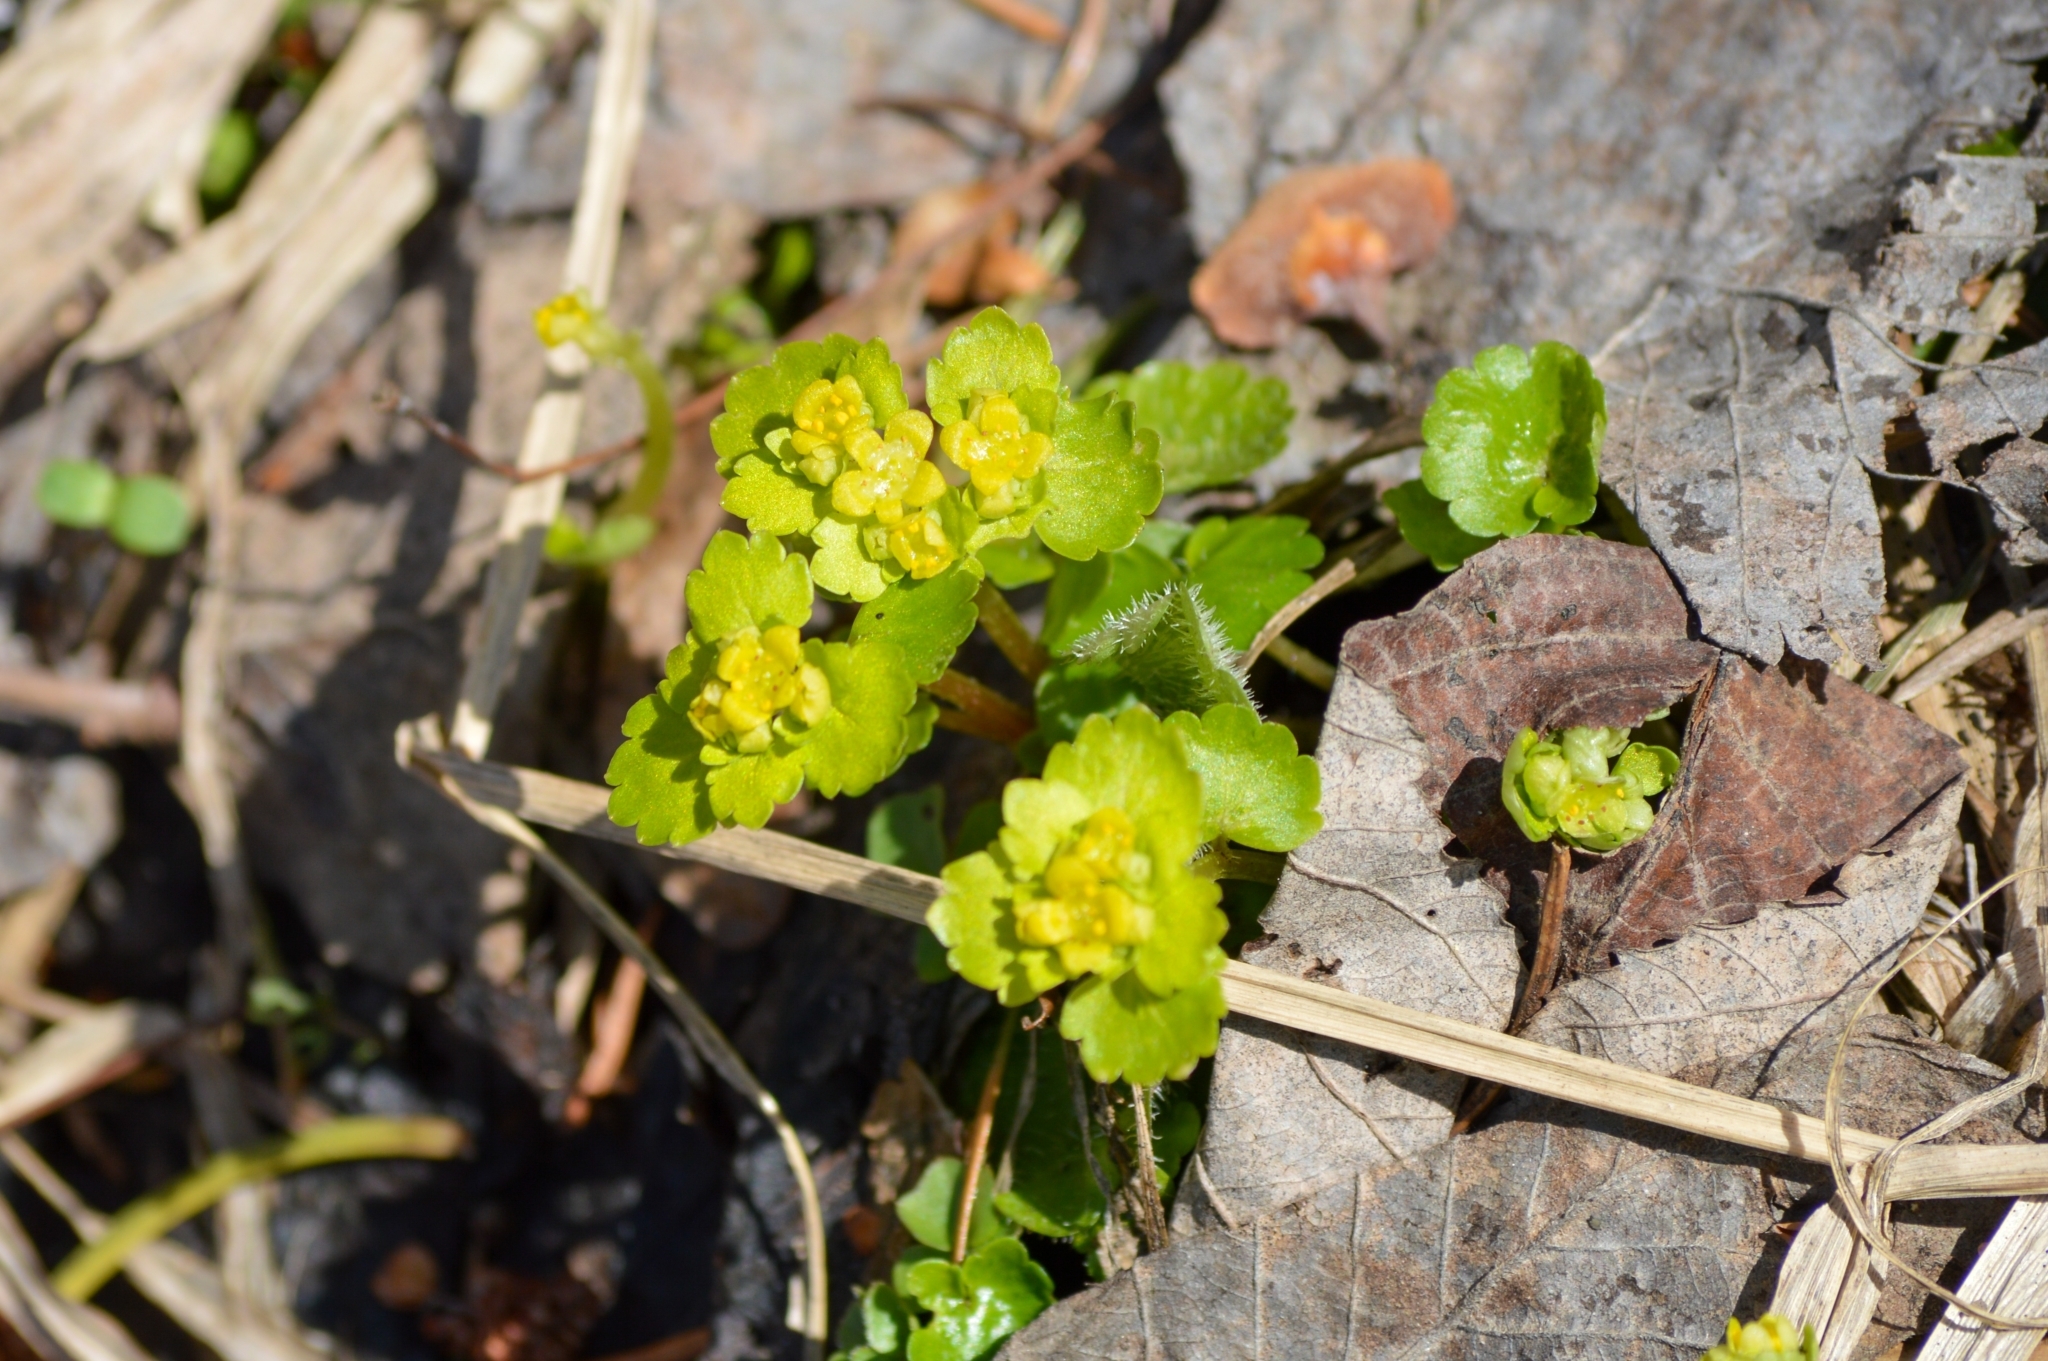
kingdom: Plantae
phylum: Tracheophyta
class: Magnoliopsida
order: Saxifragales
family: Saxifragaceae
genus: Chrysosplenium
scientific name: Chrysosplenium alternifolium
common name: Alternate-leaved golden-saxifrage
